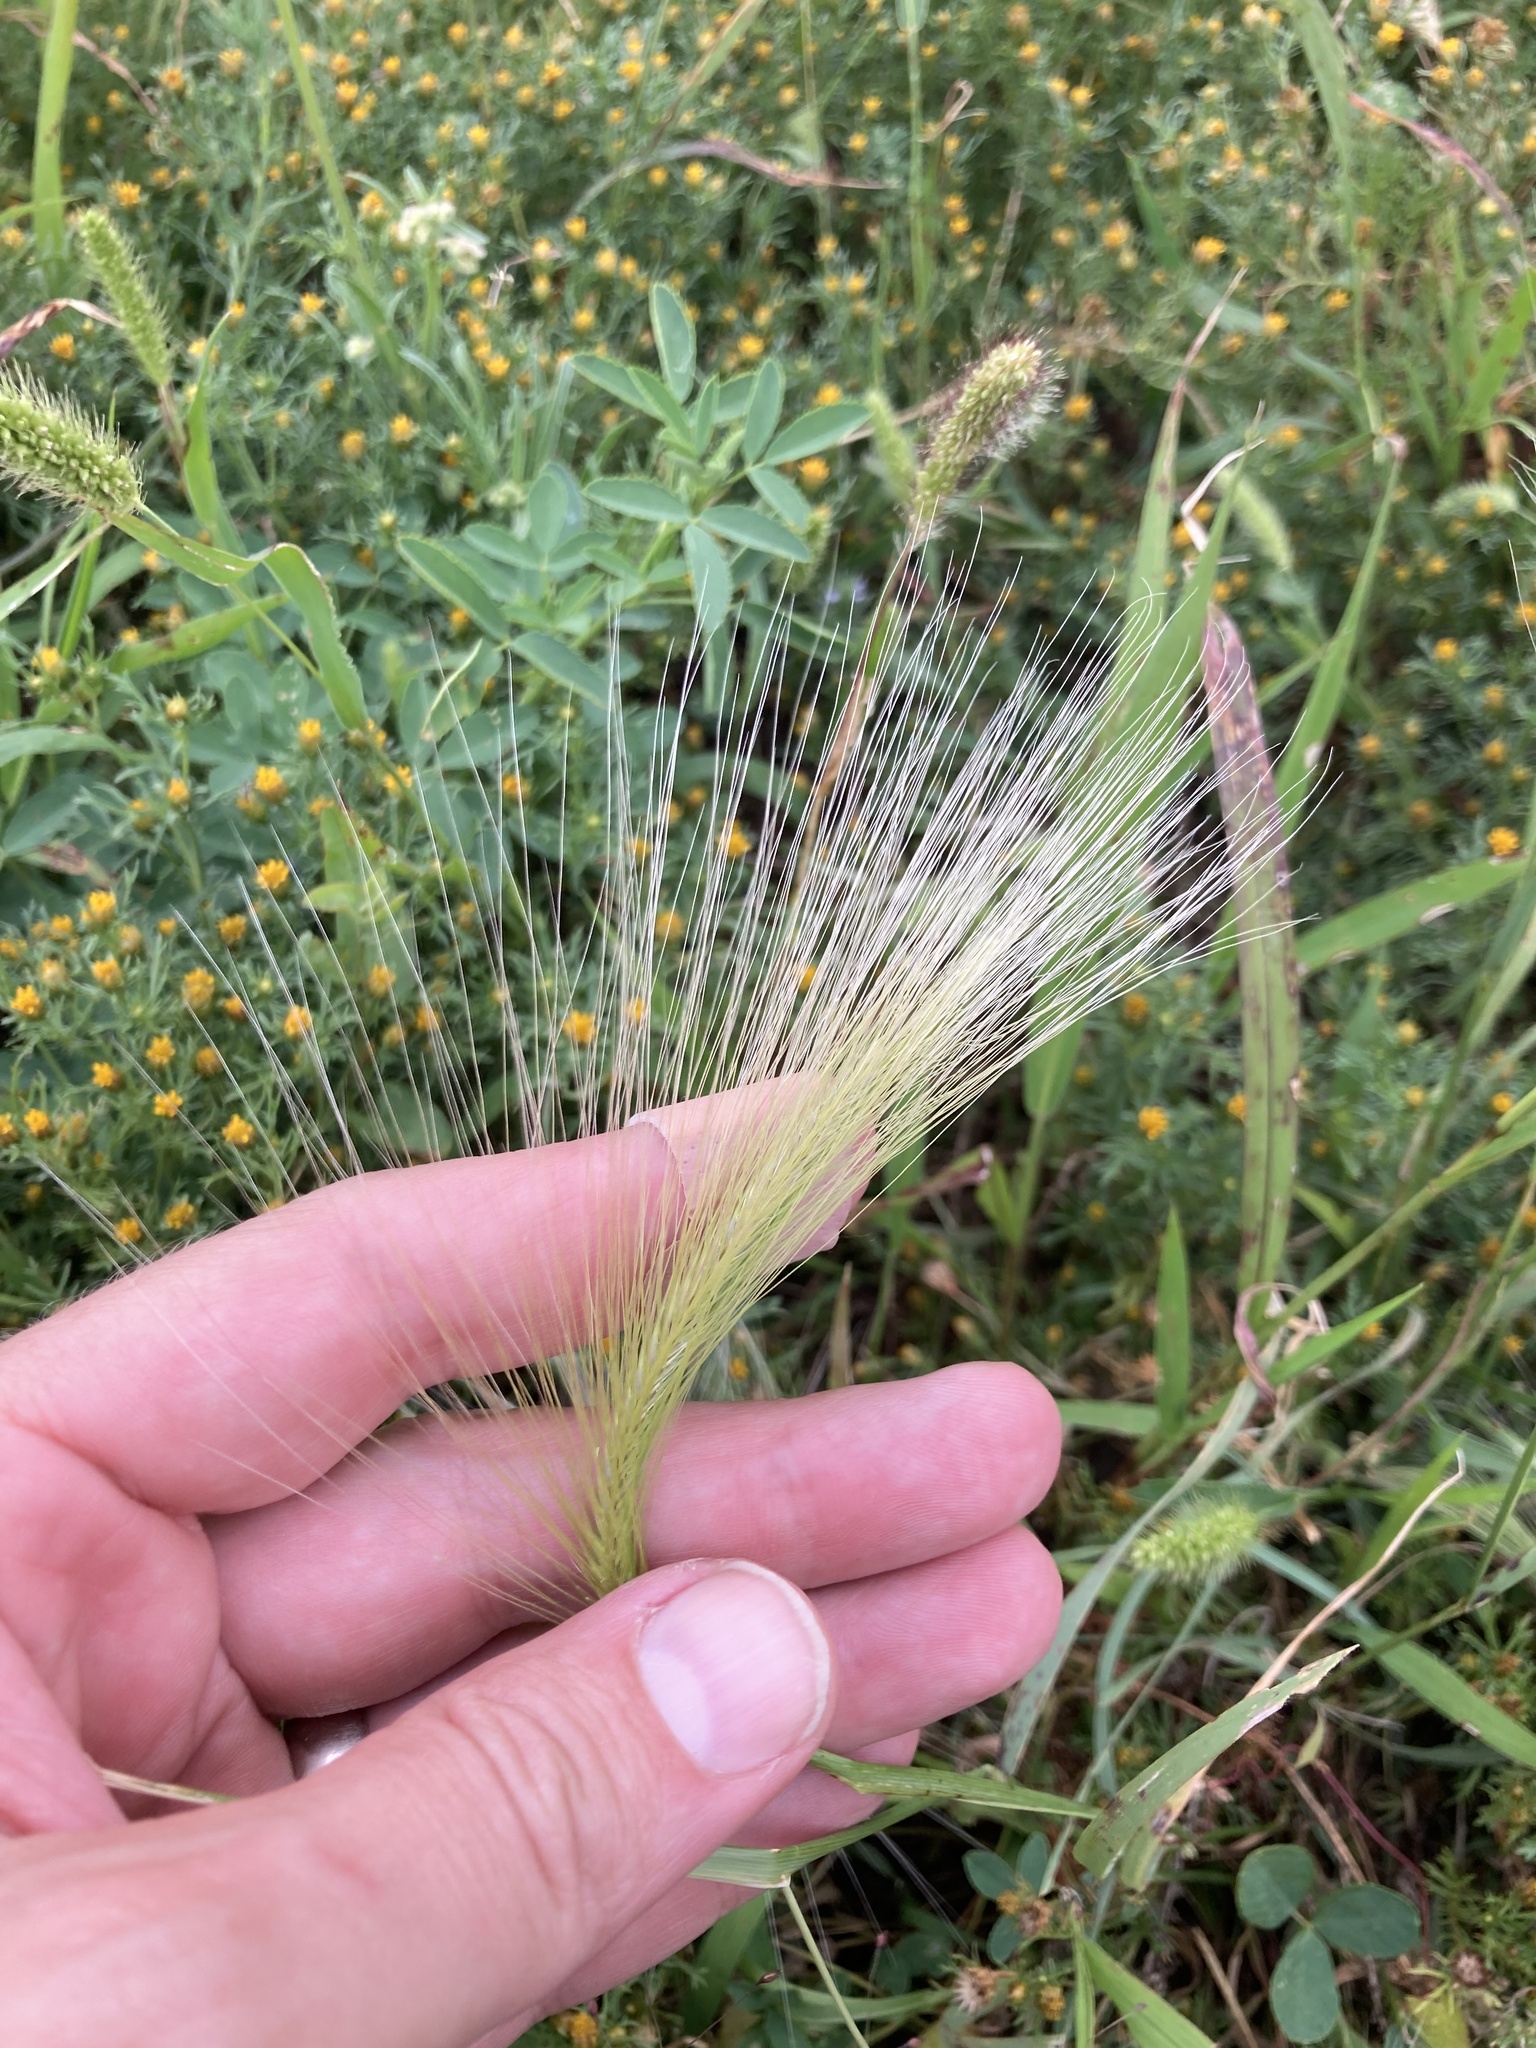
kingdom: Plantae
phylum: Tracheophyta
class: Liliopsida
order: Poales
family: Poaceae
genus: Hordeum
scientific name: Hordeum jubatum
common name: Foxtail barley
